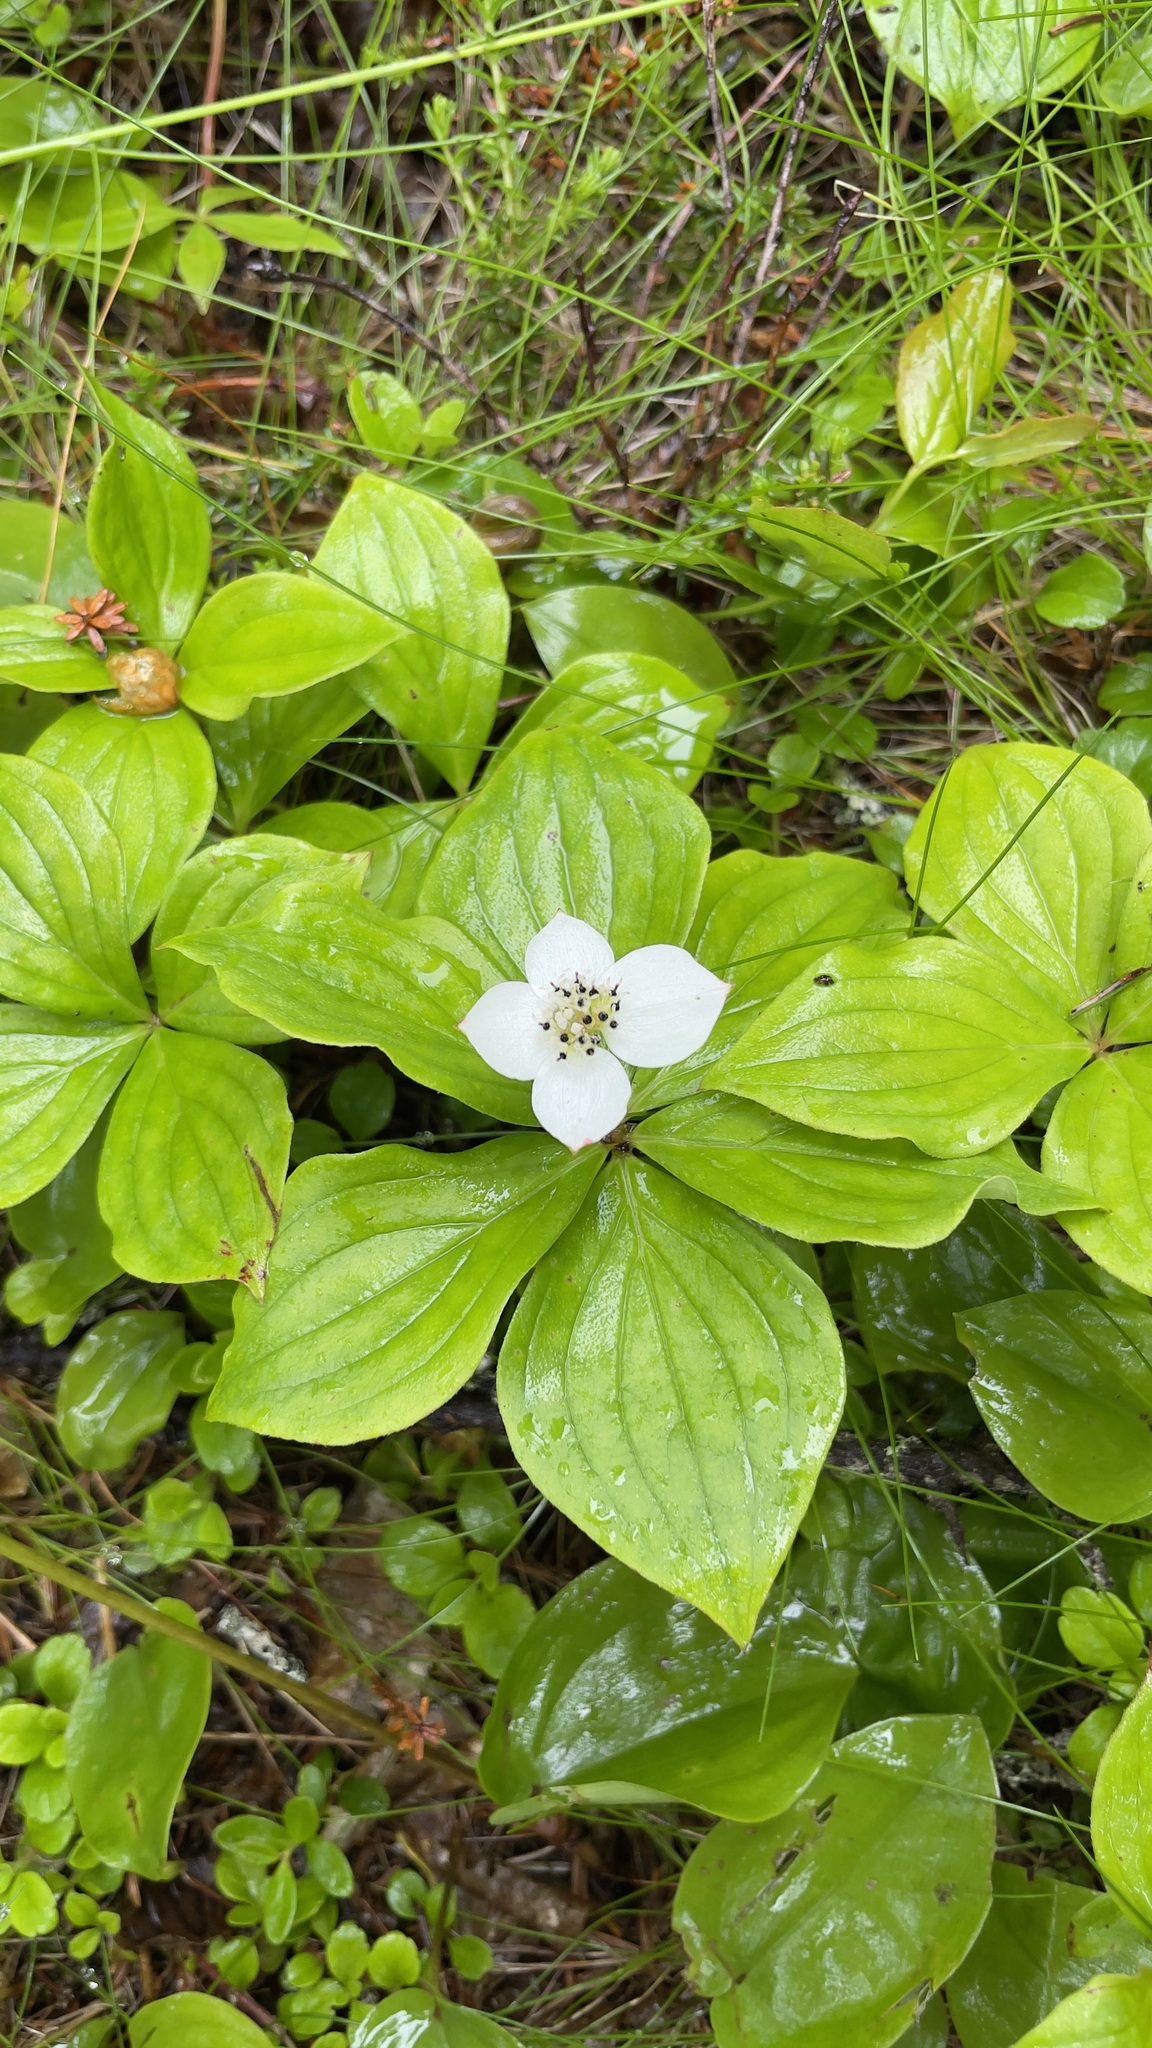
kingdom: Plantae
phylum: Tracheophyta
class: Magnoliopsida
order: Cornales
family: Cornaceae
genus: Cornus
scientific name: Cornus canadensis
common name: Creeping dogwood
